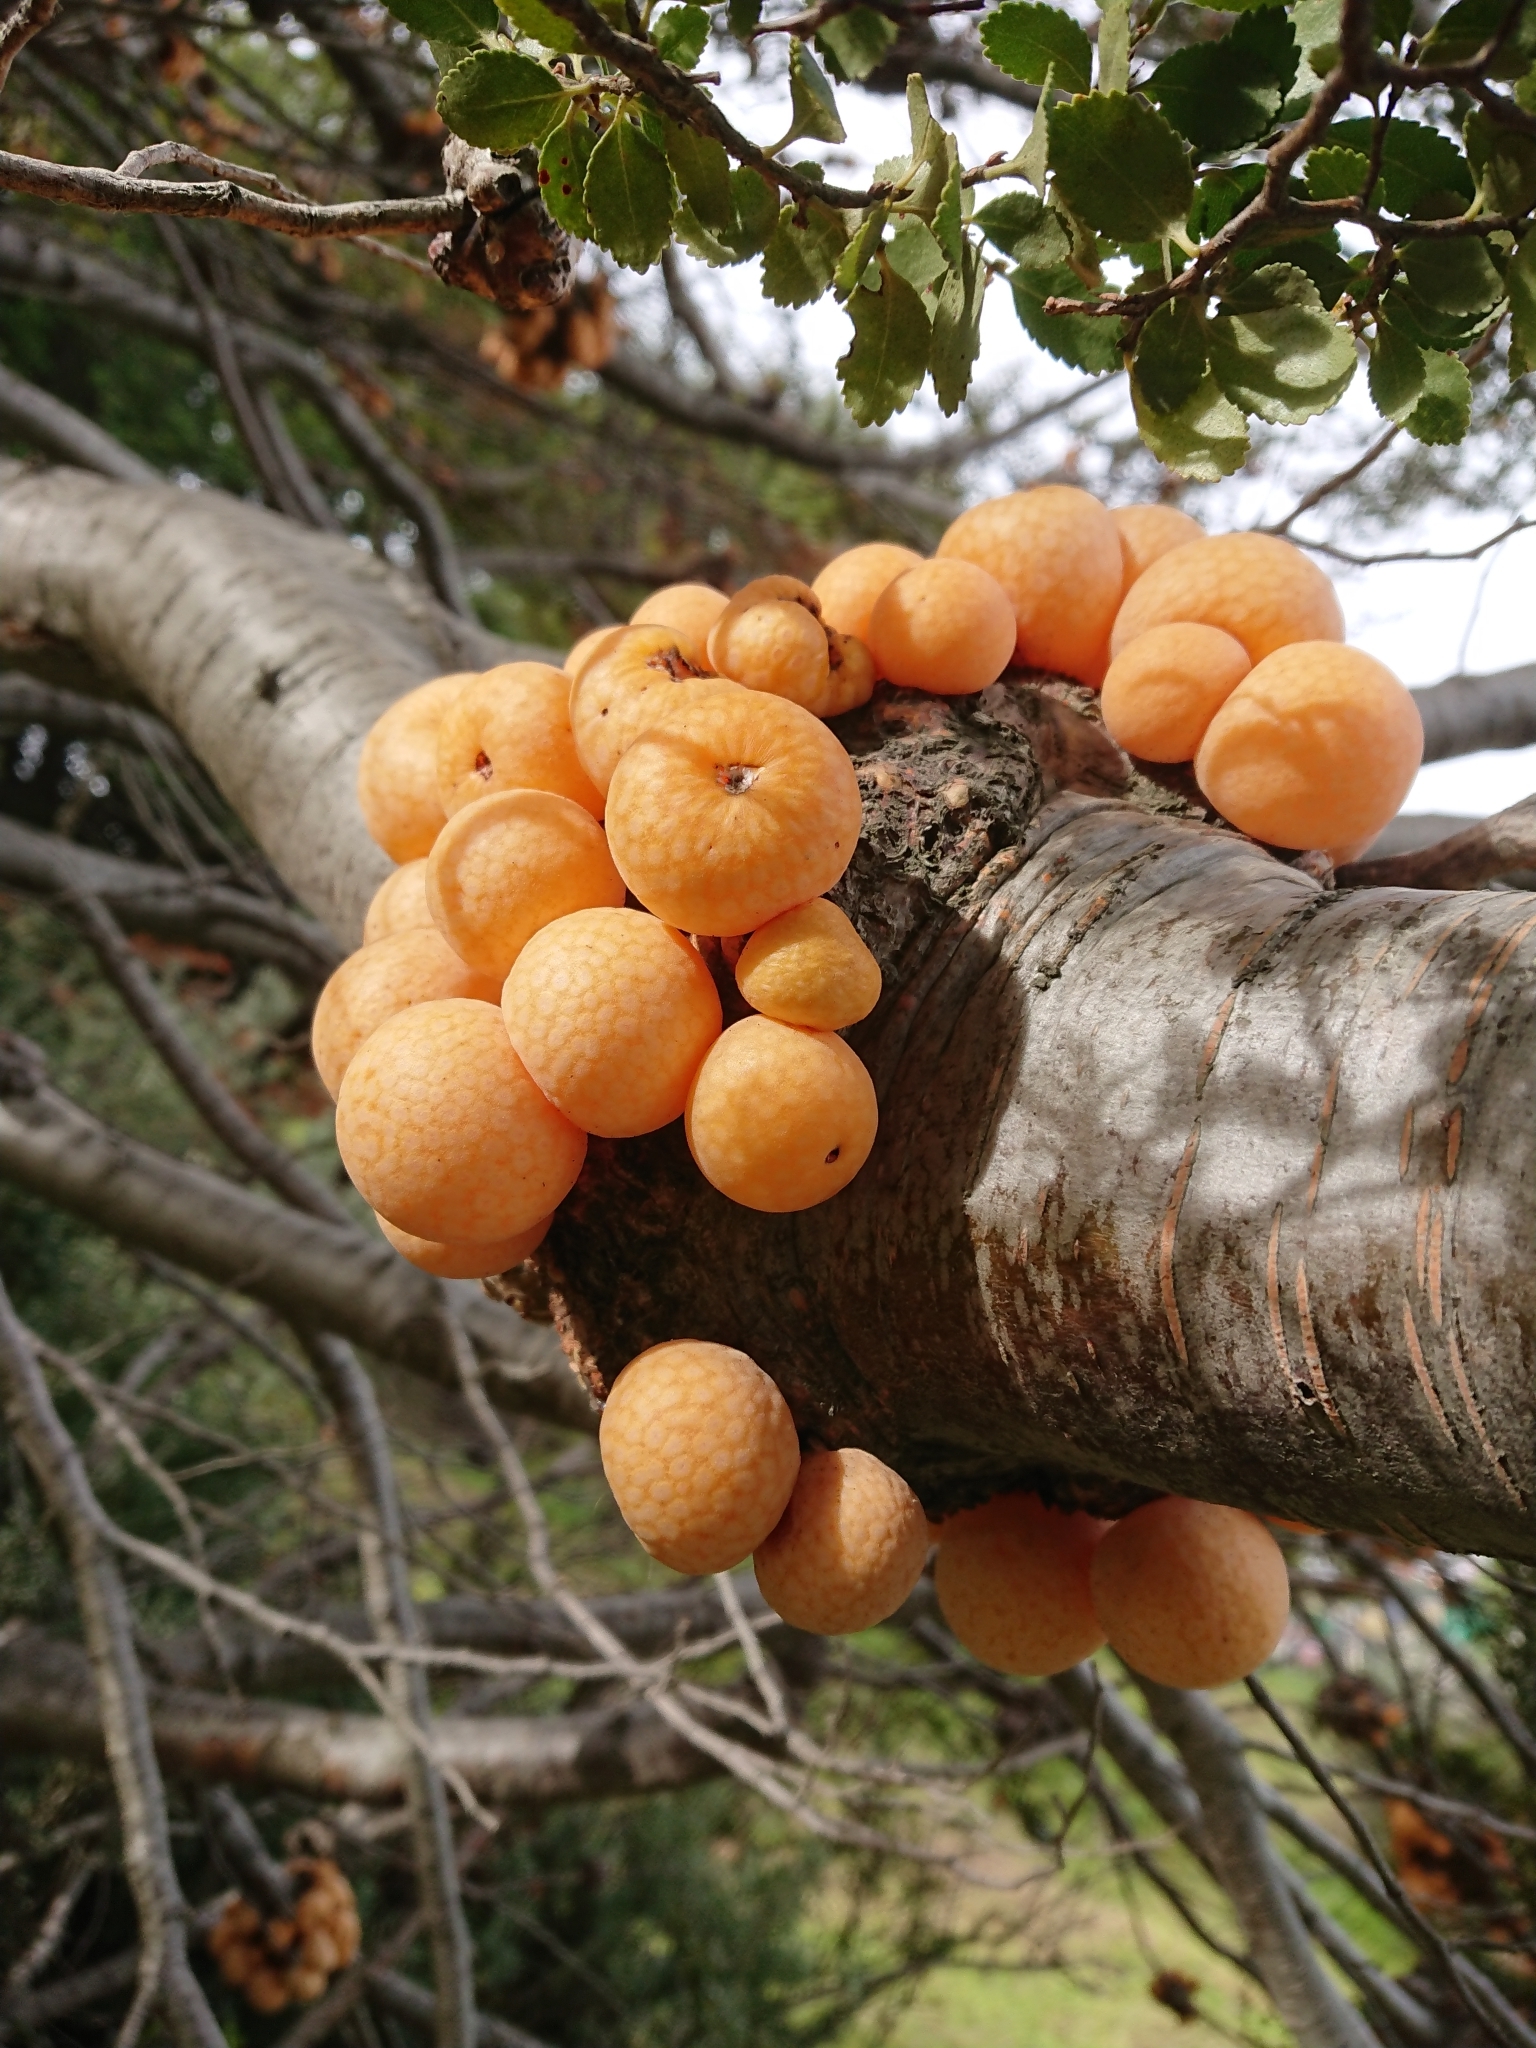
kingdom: Fungi
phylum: Ascomycota
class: Leotiomycetes
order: Cyttariales
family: Cyttariaceae
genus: Cyttaria
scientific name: Cyttaria hariotii
